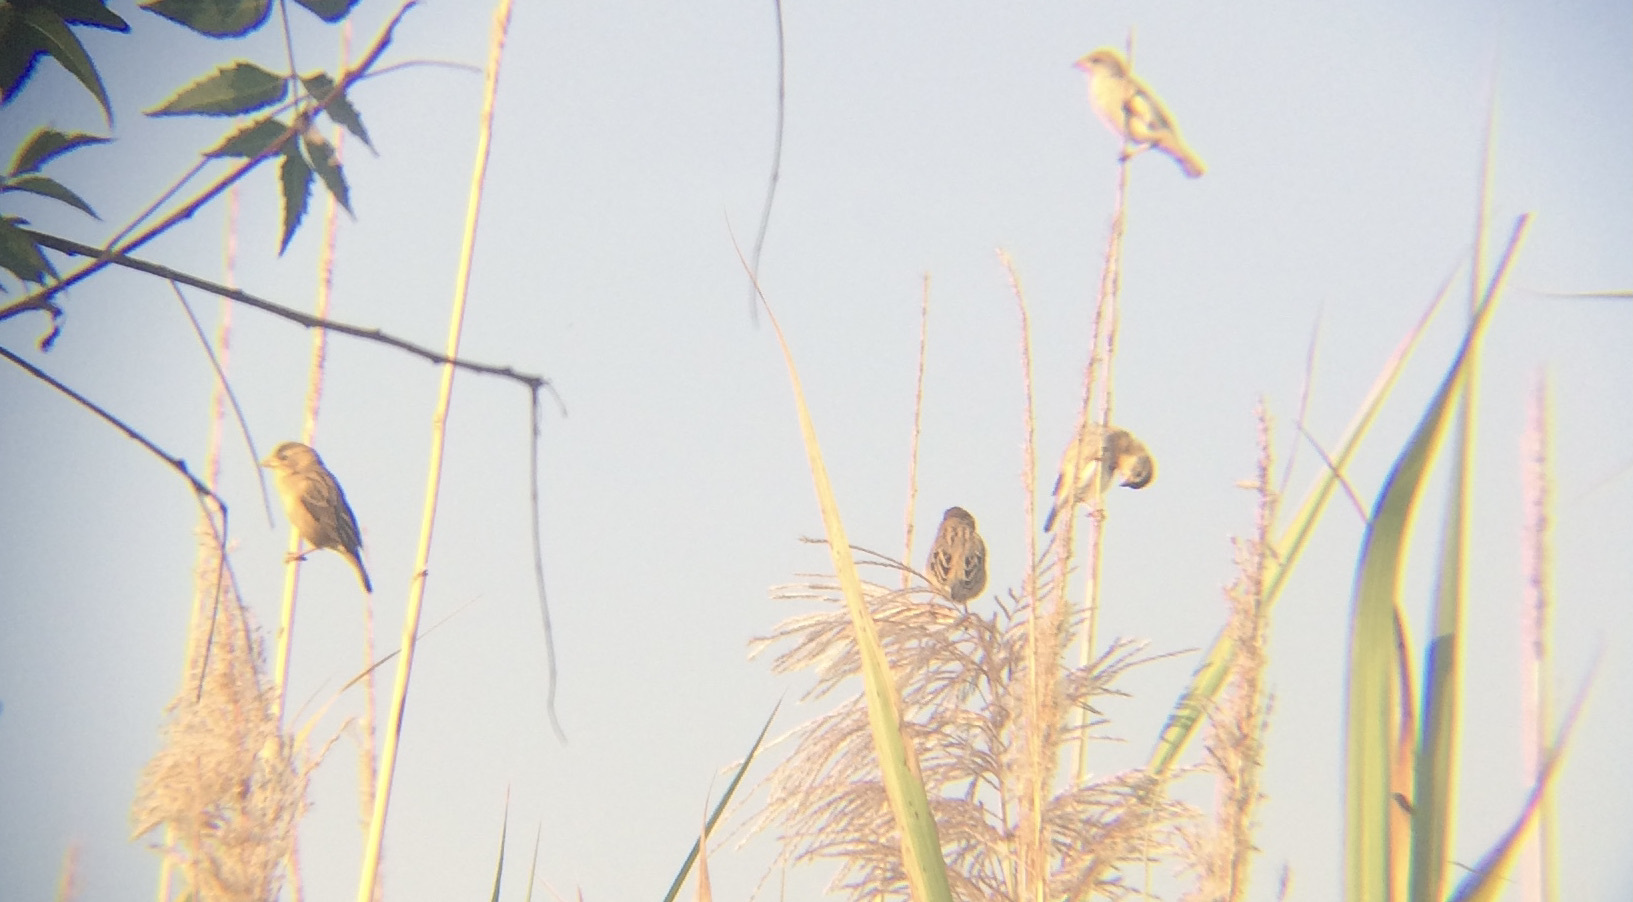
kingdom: Animalia
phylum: Chordata
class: Aves
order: Passeriformes
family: Ploceidae
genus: Ploceus
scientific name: Ploceus philippinus
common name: Baya weaver
